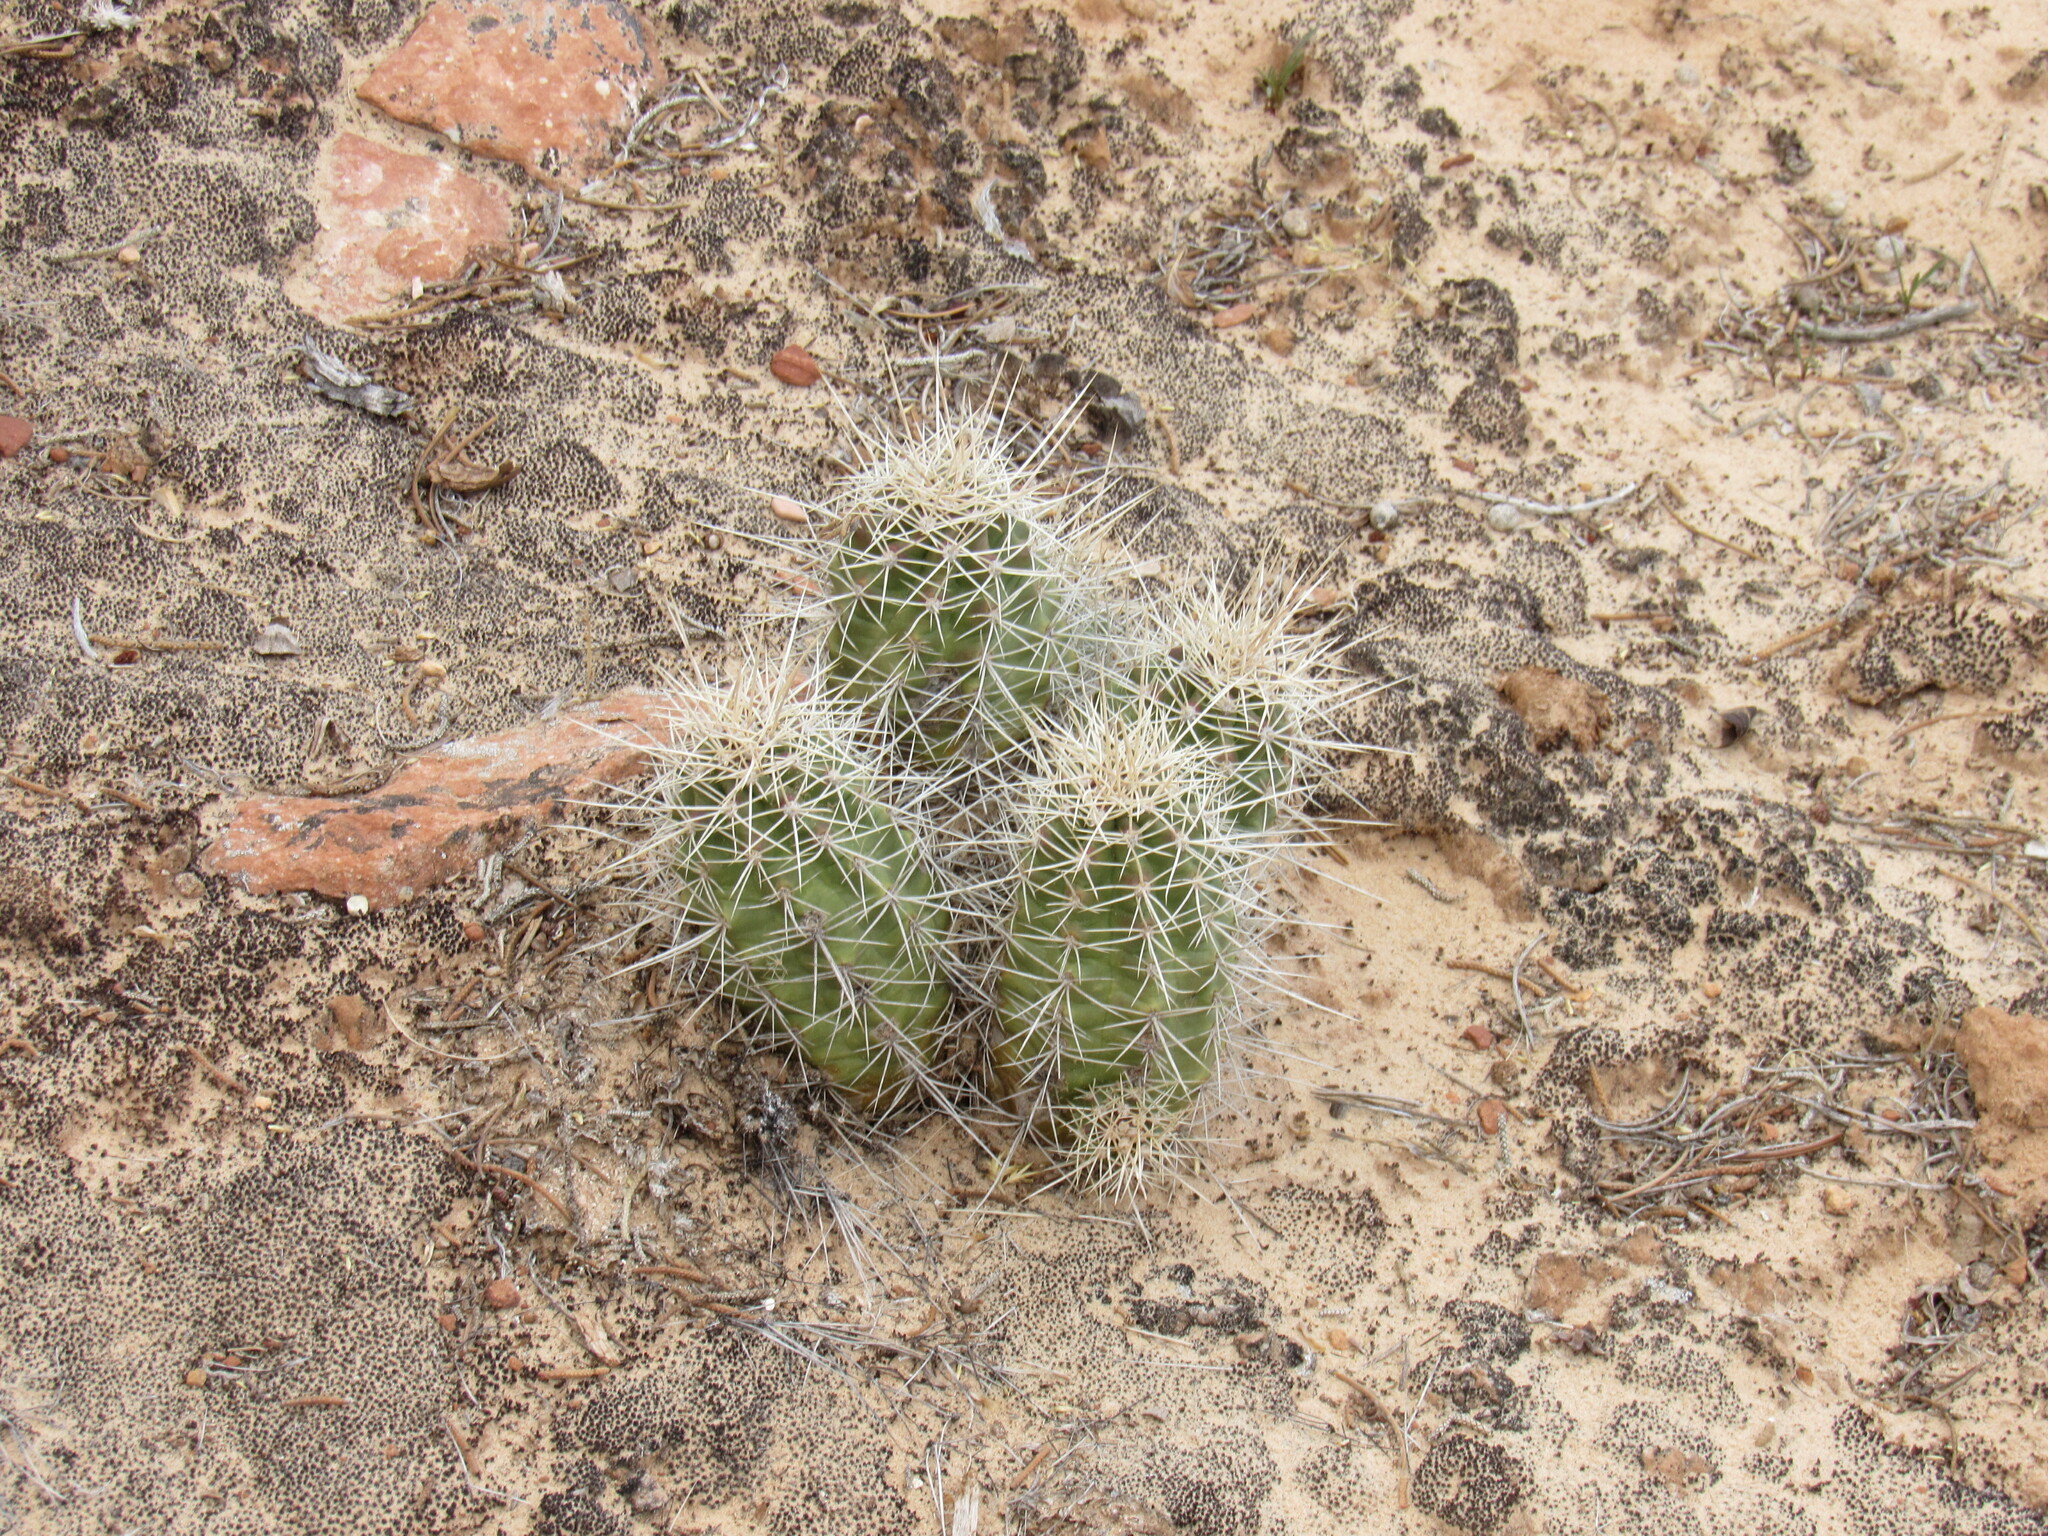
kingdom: Plantae
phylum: Tracheophyta
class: Magnoliopsida
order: Caryophyllales
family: Cactaceae
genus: Echinocereus
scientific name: Echinocereus triglochidiatus
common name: Claretcup hedgehog
